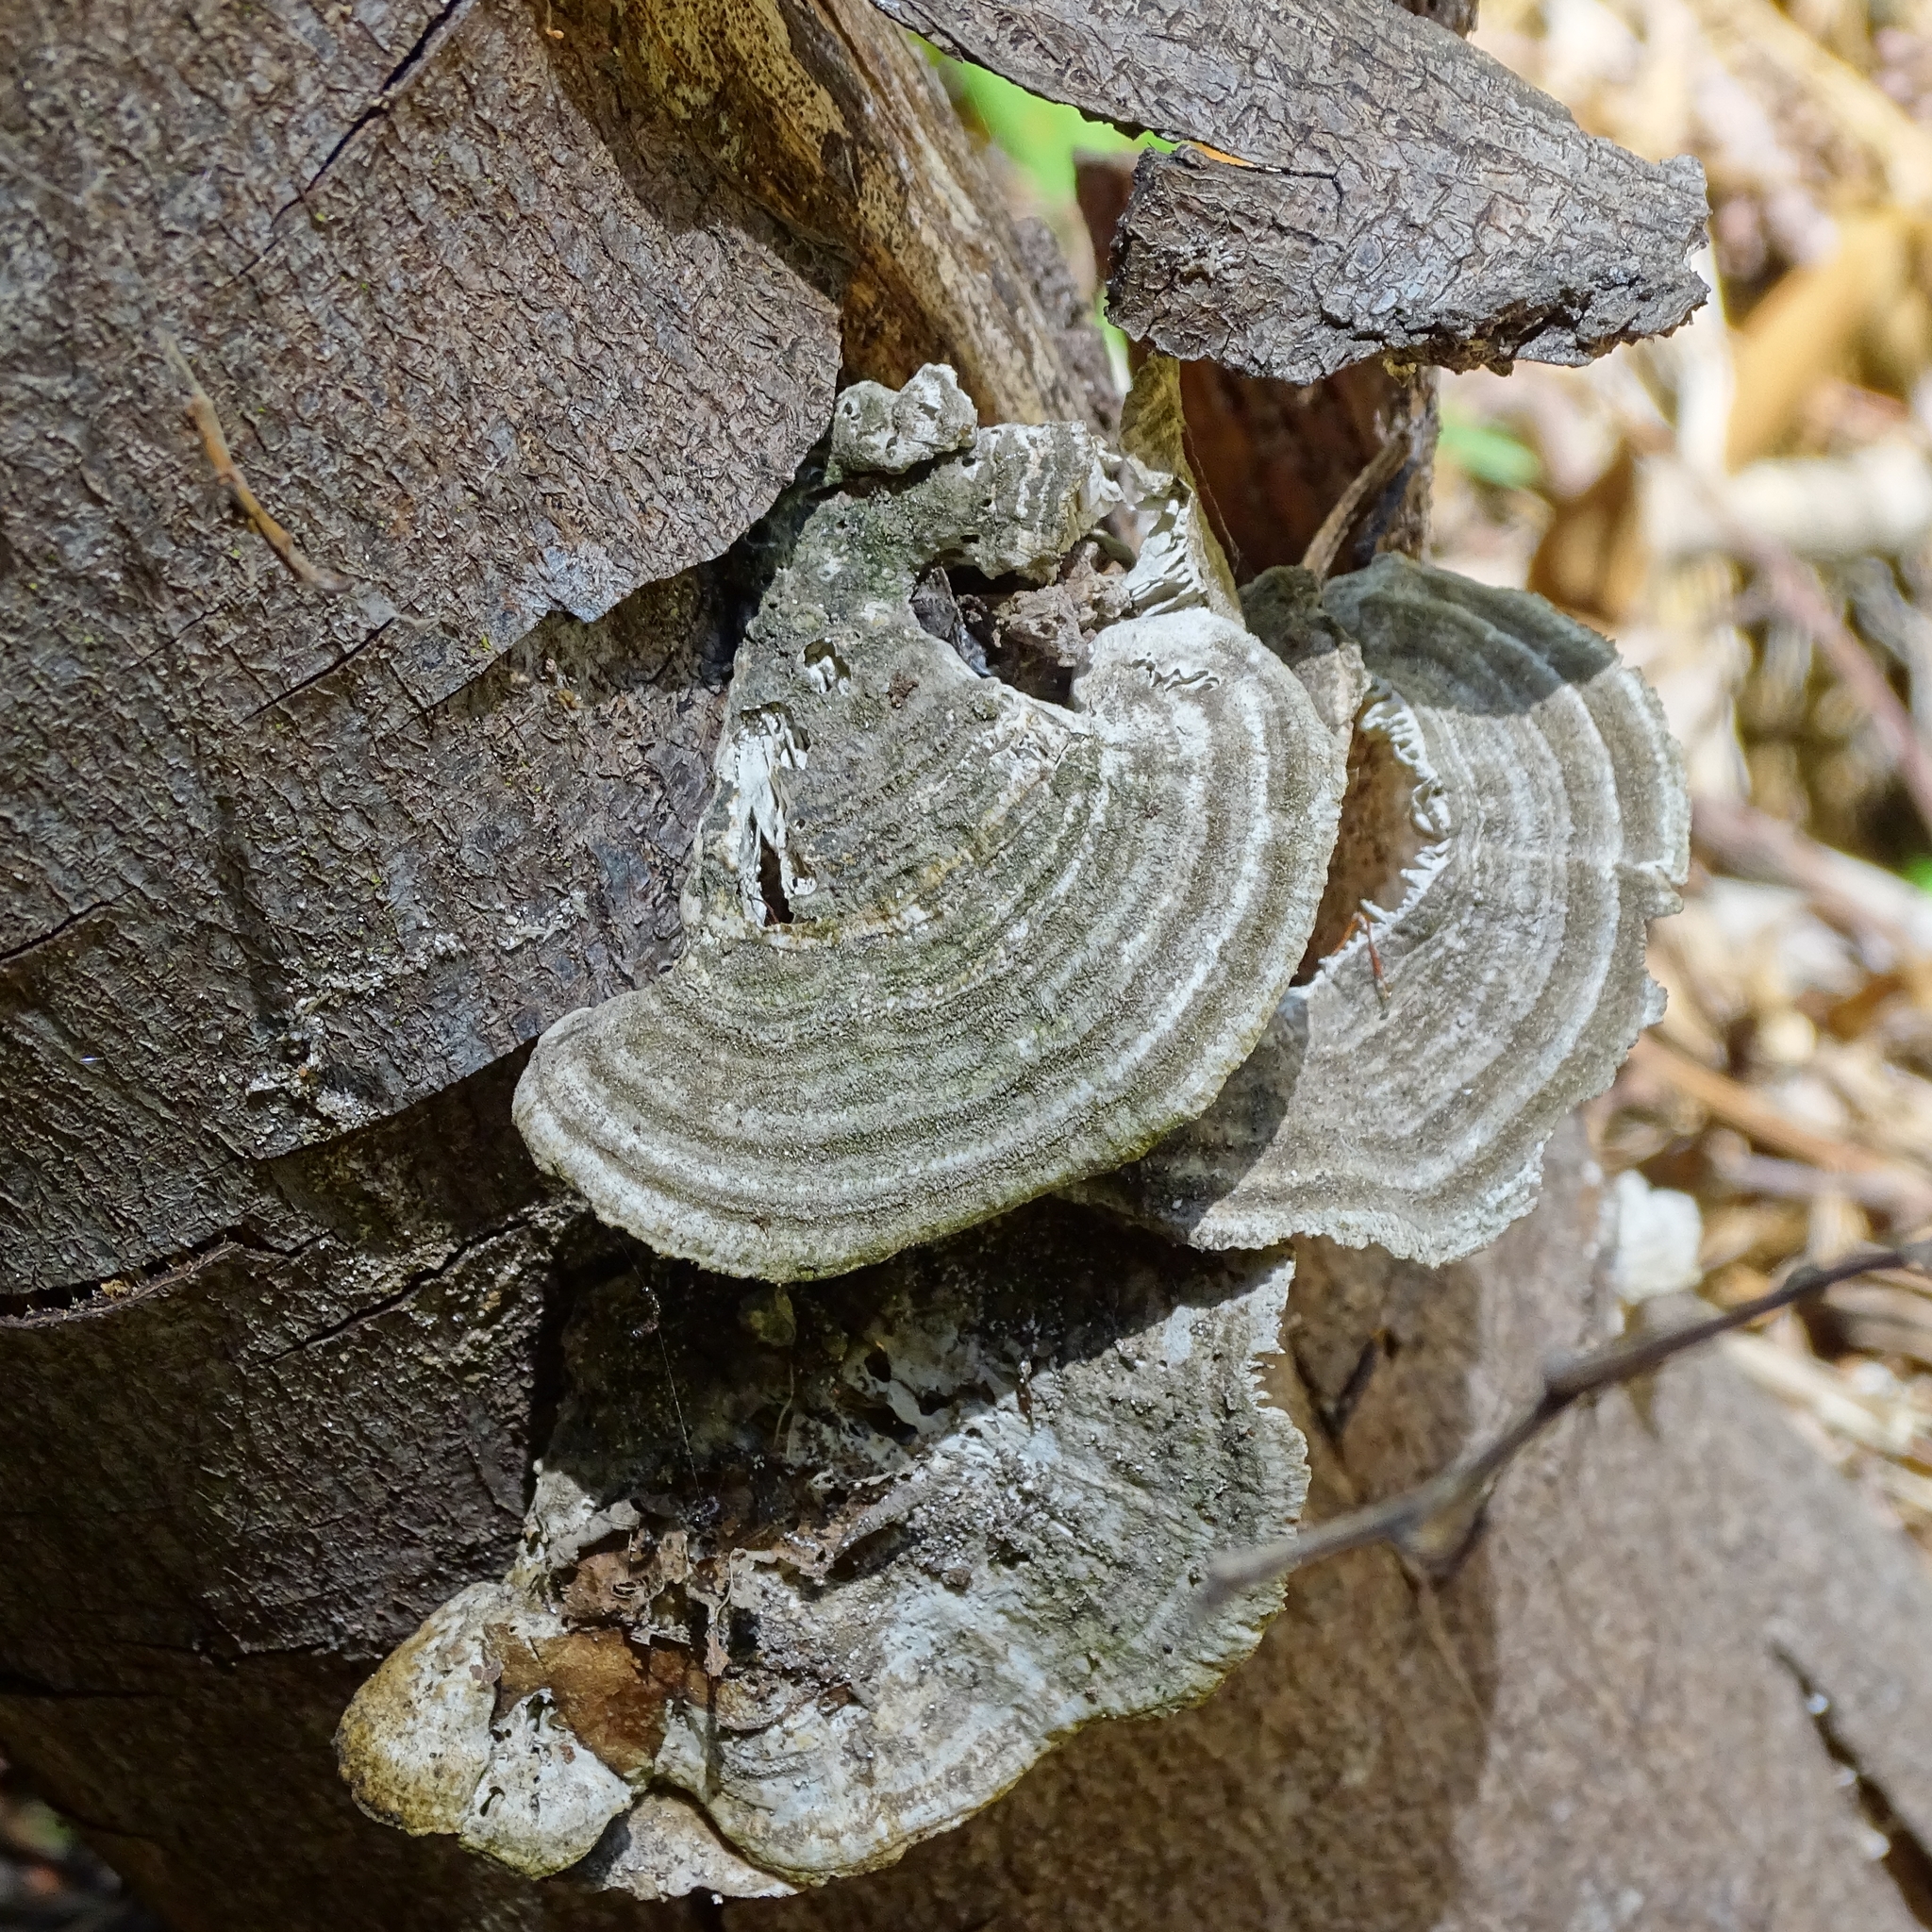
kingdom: Fungi
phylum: Basidiomycota
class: Agaricomycetes
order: Polyporales
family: Polyporaceae
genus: Trametes
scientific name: Trametes versicolor
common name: Turkeytail
